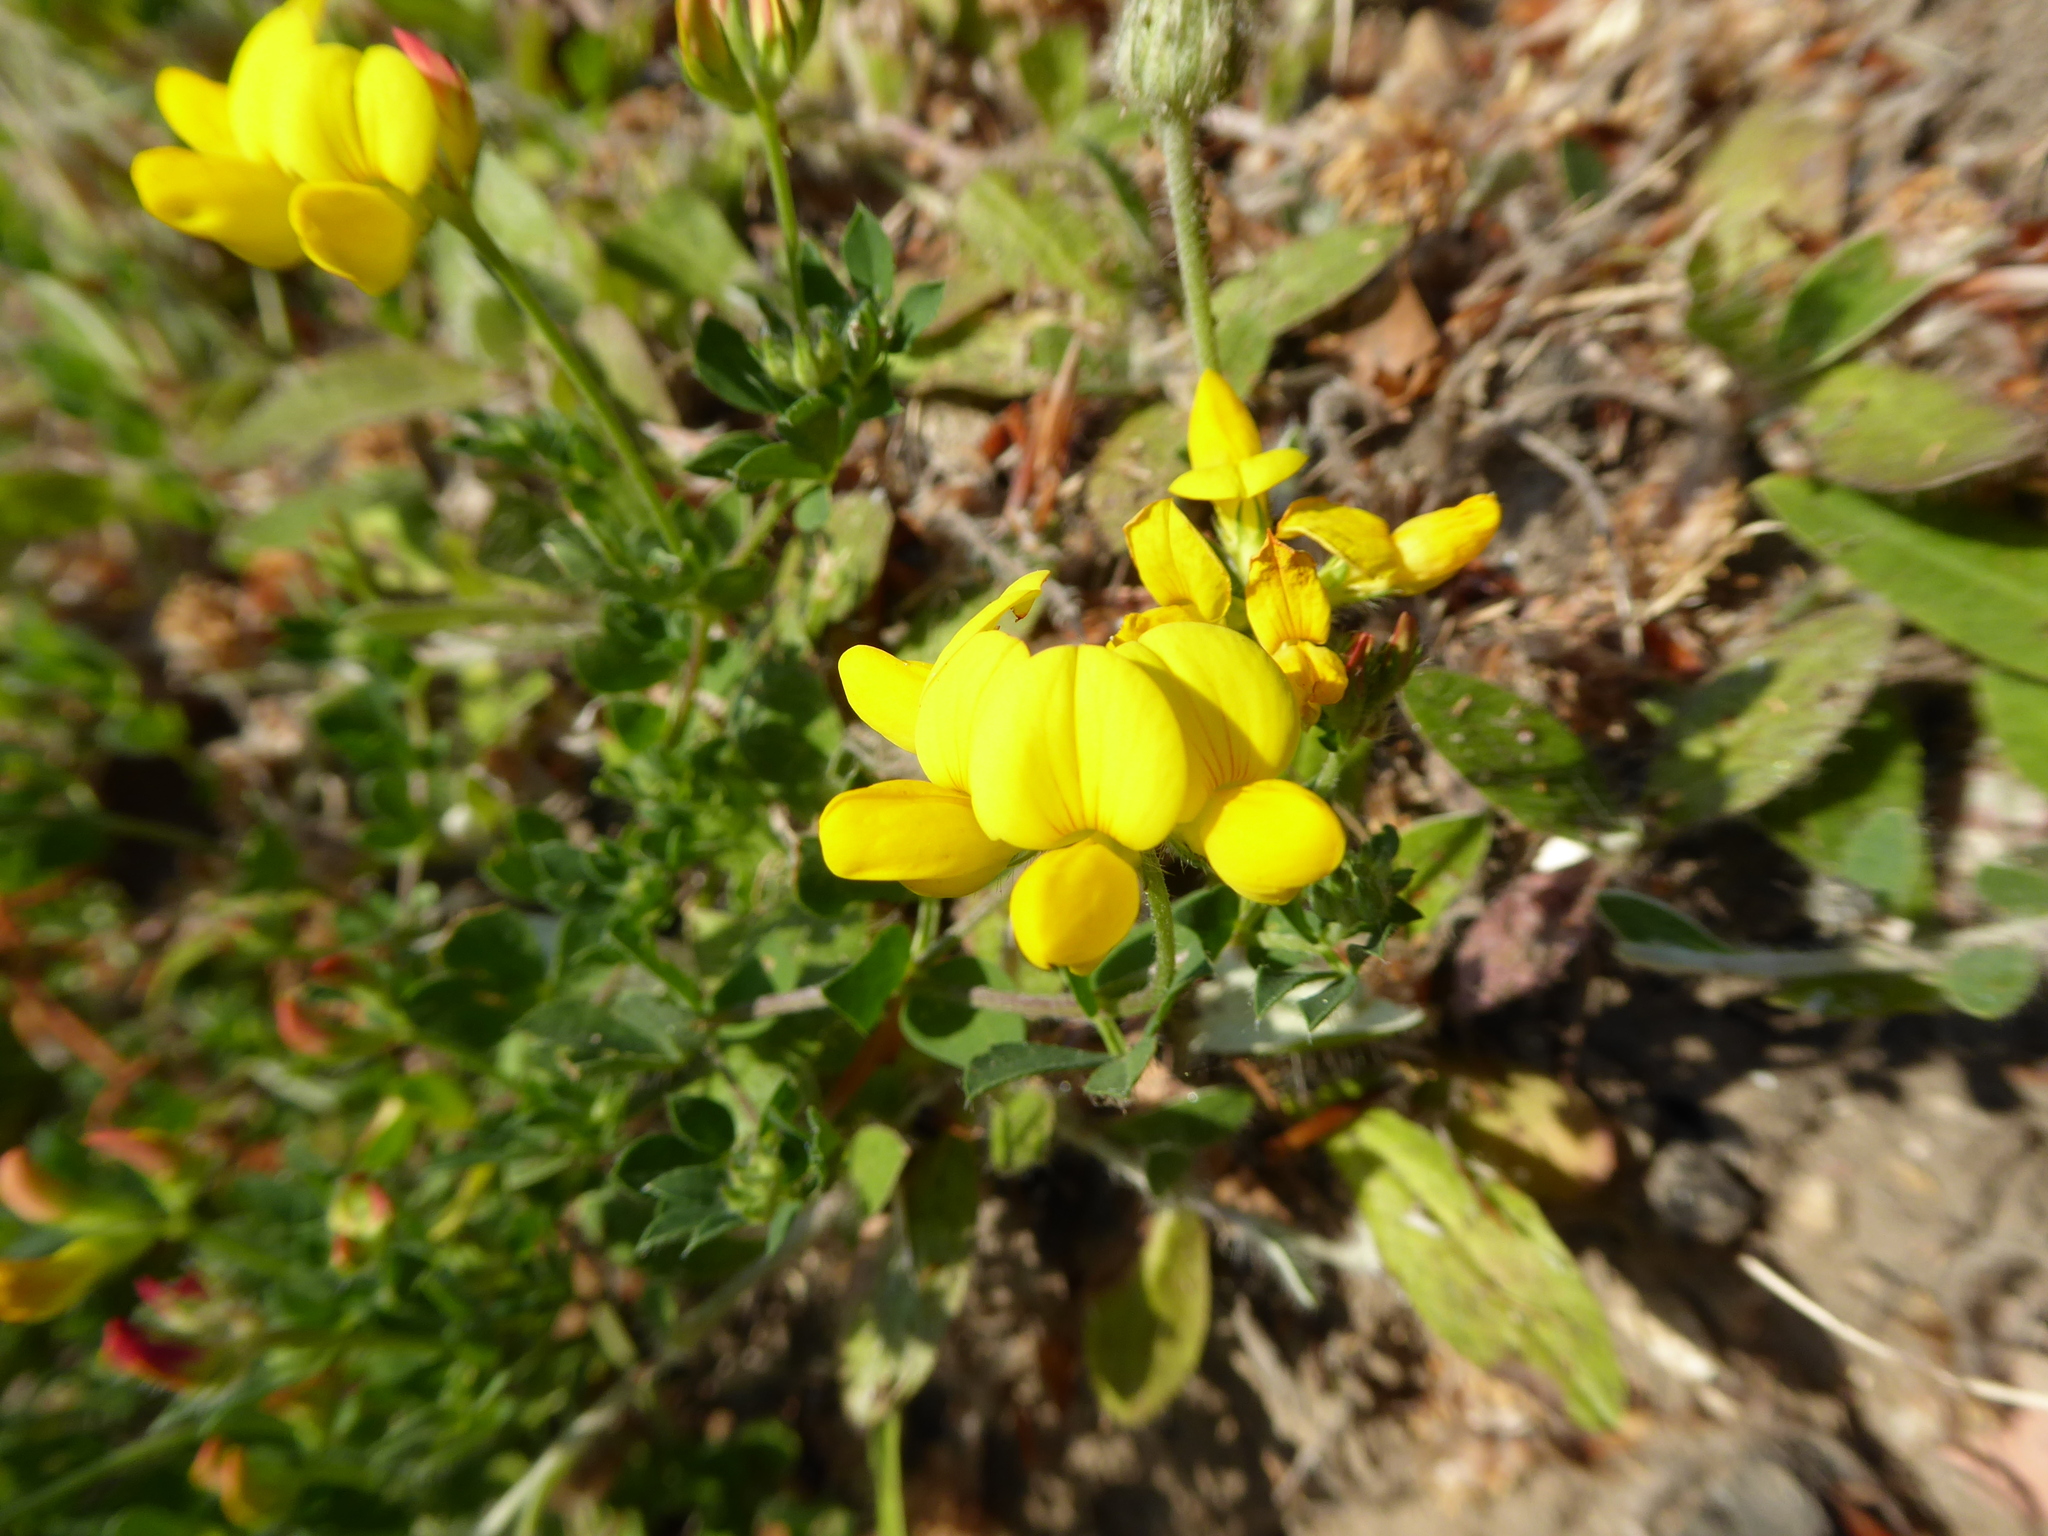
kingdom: Plantae
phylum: Tracheophyta
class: Magnoliopsida
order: Fabales
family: Fabaceae
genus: Lotus
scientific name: Lotus corniculatus
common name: Common bird's-foot-trefoil
